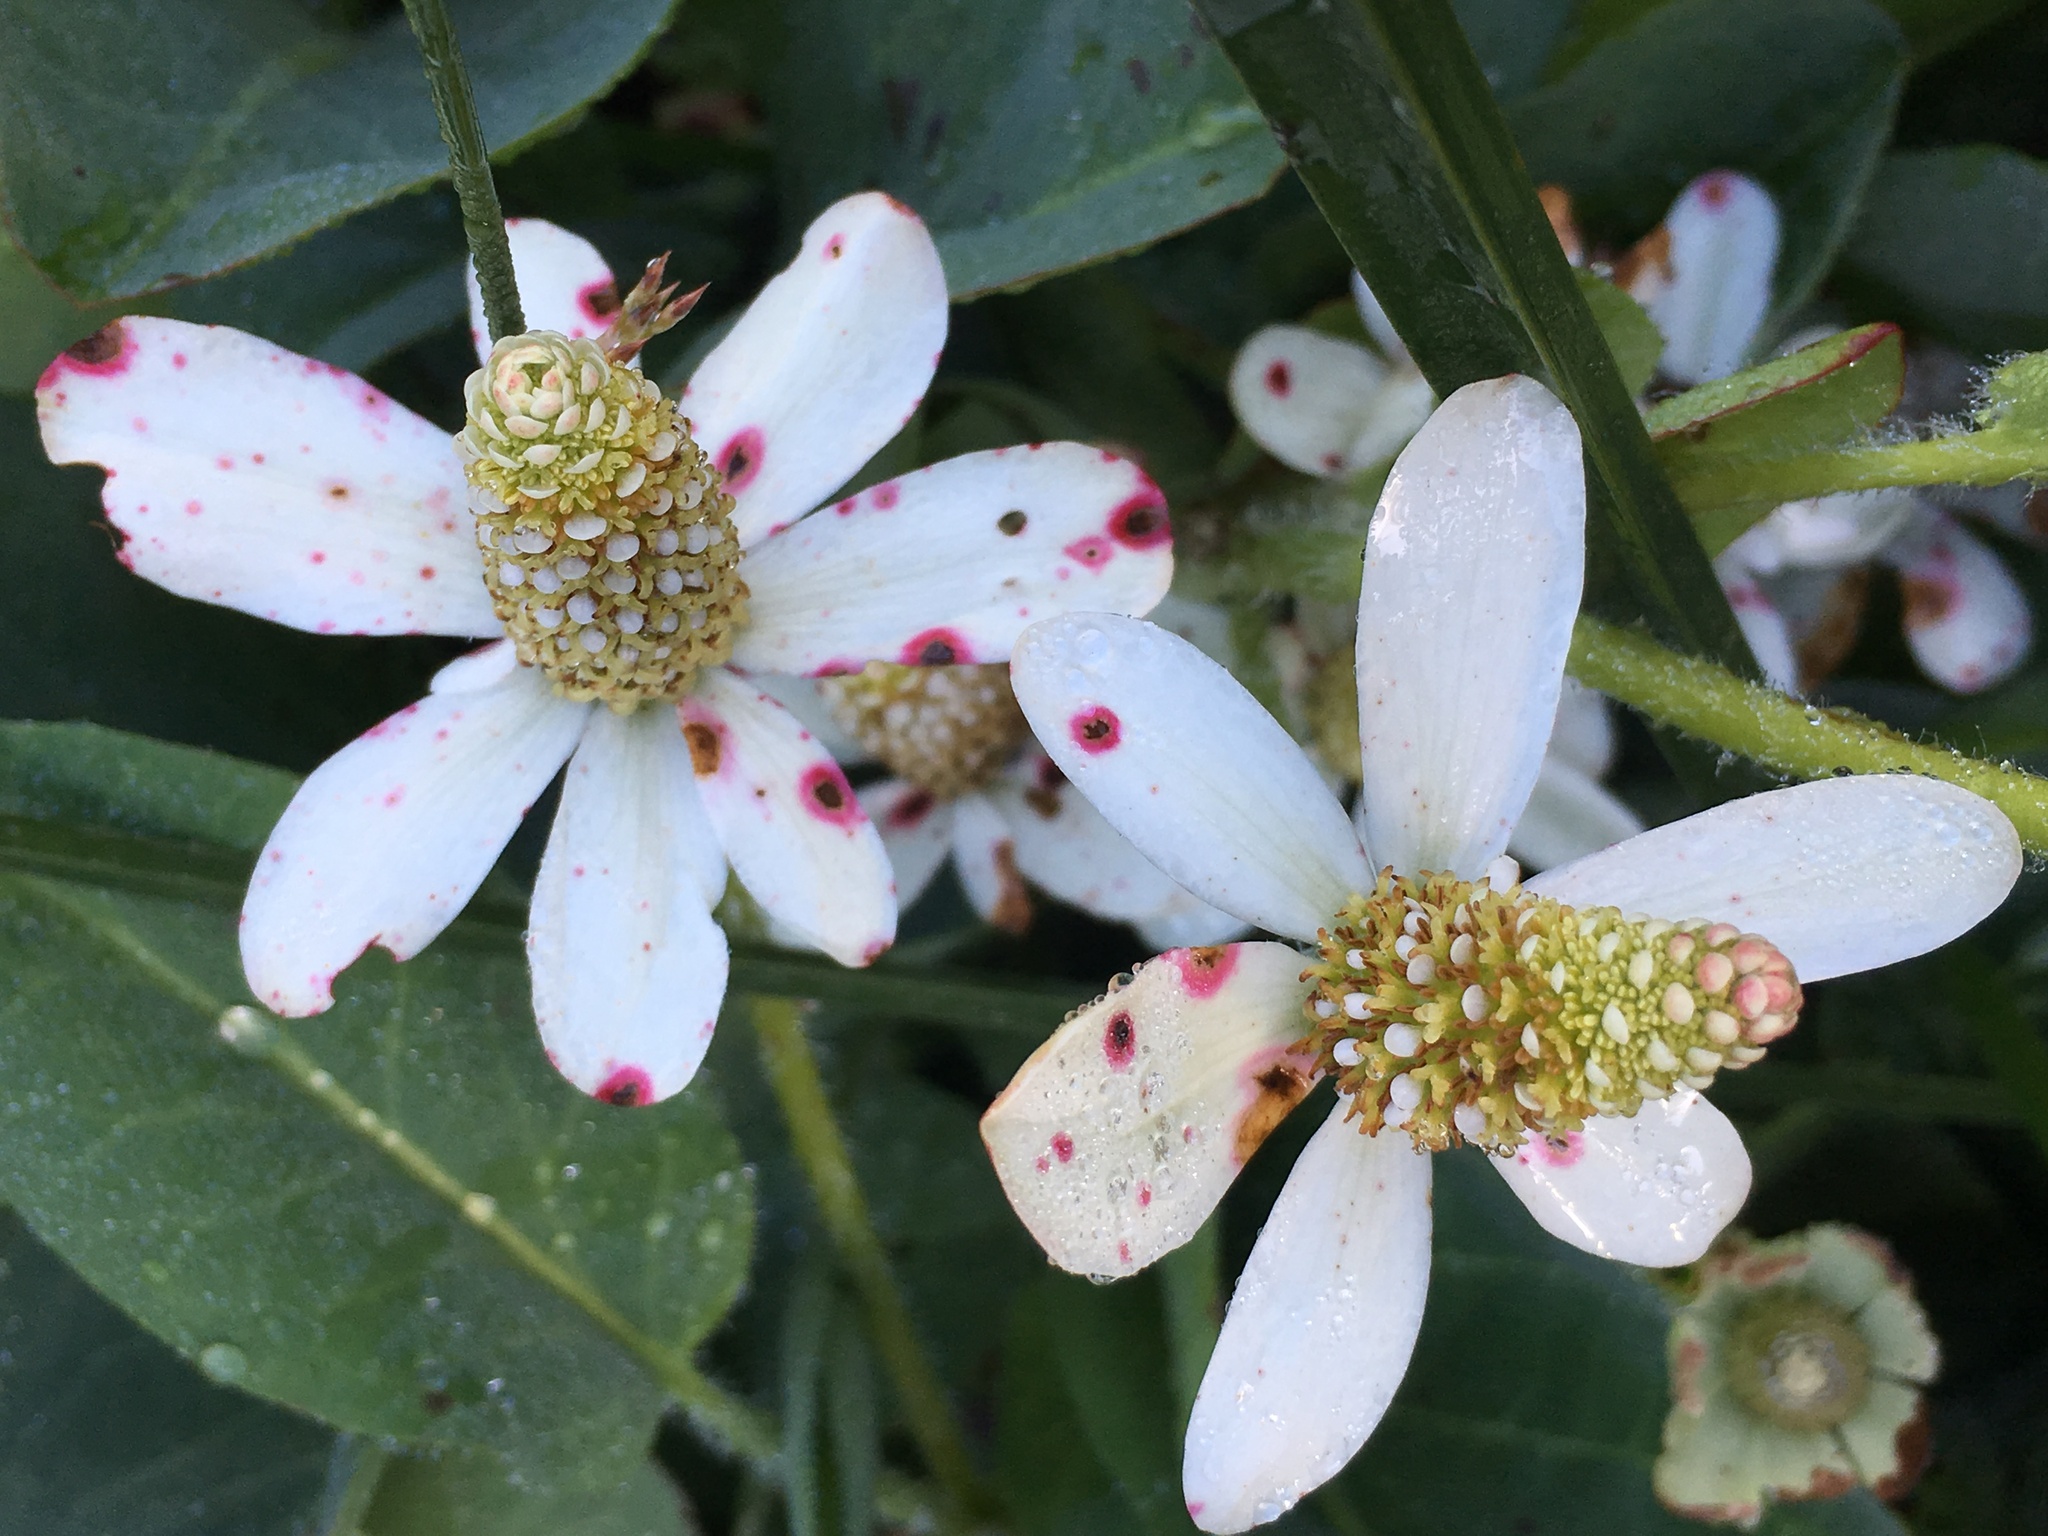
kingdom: Plantae
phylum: Tracheophyta
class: Magnoliopsida
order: Piperales
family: Saururaceae
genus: Anemopsis
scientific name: Anemopsis californica
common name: Apache-beads
